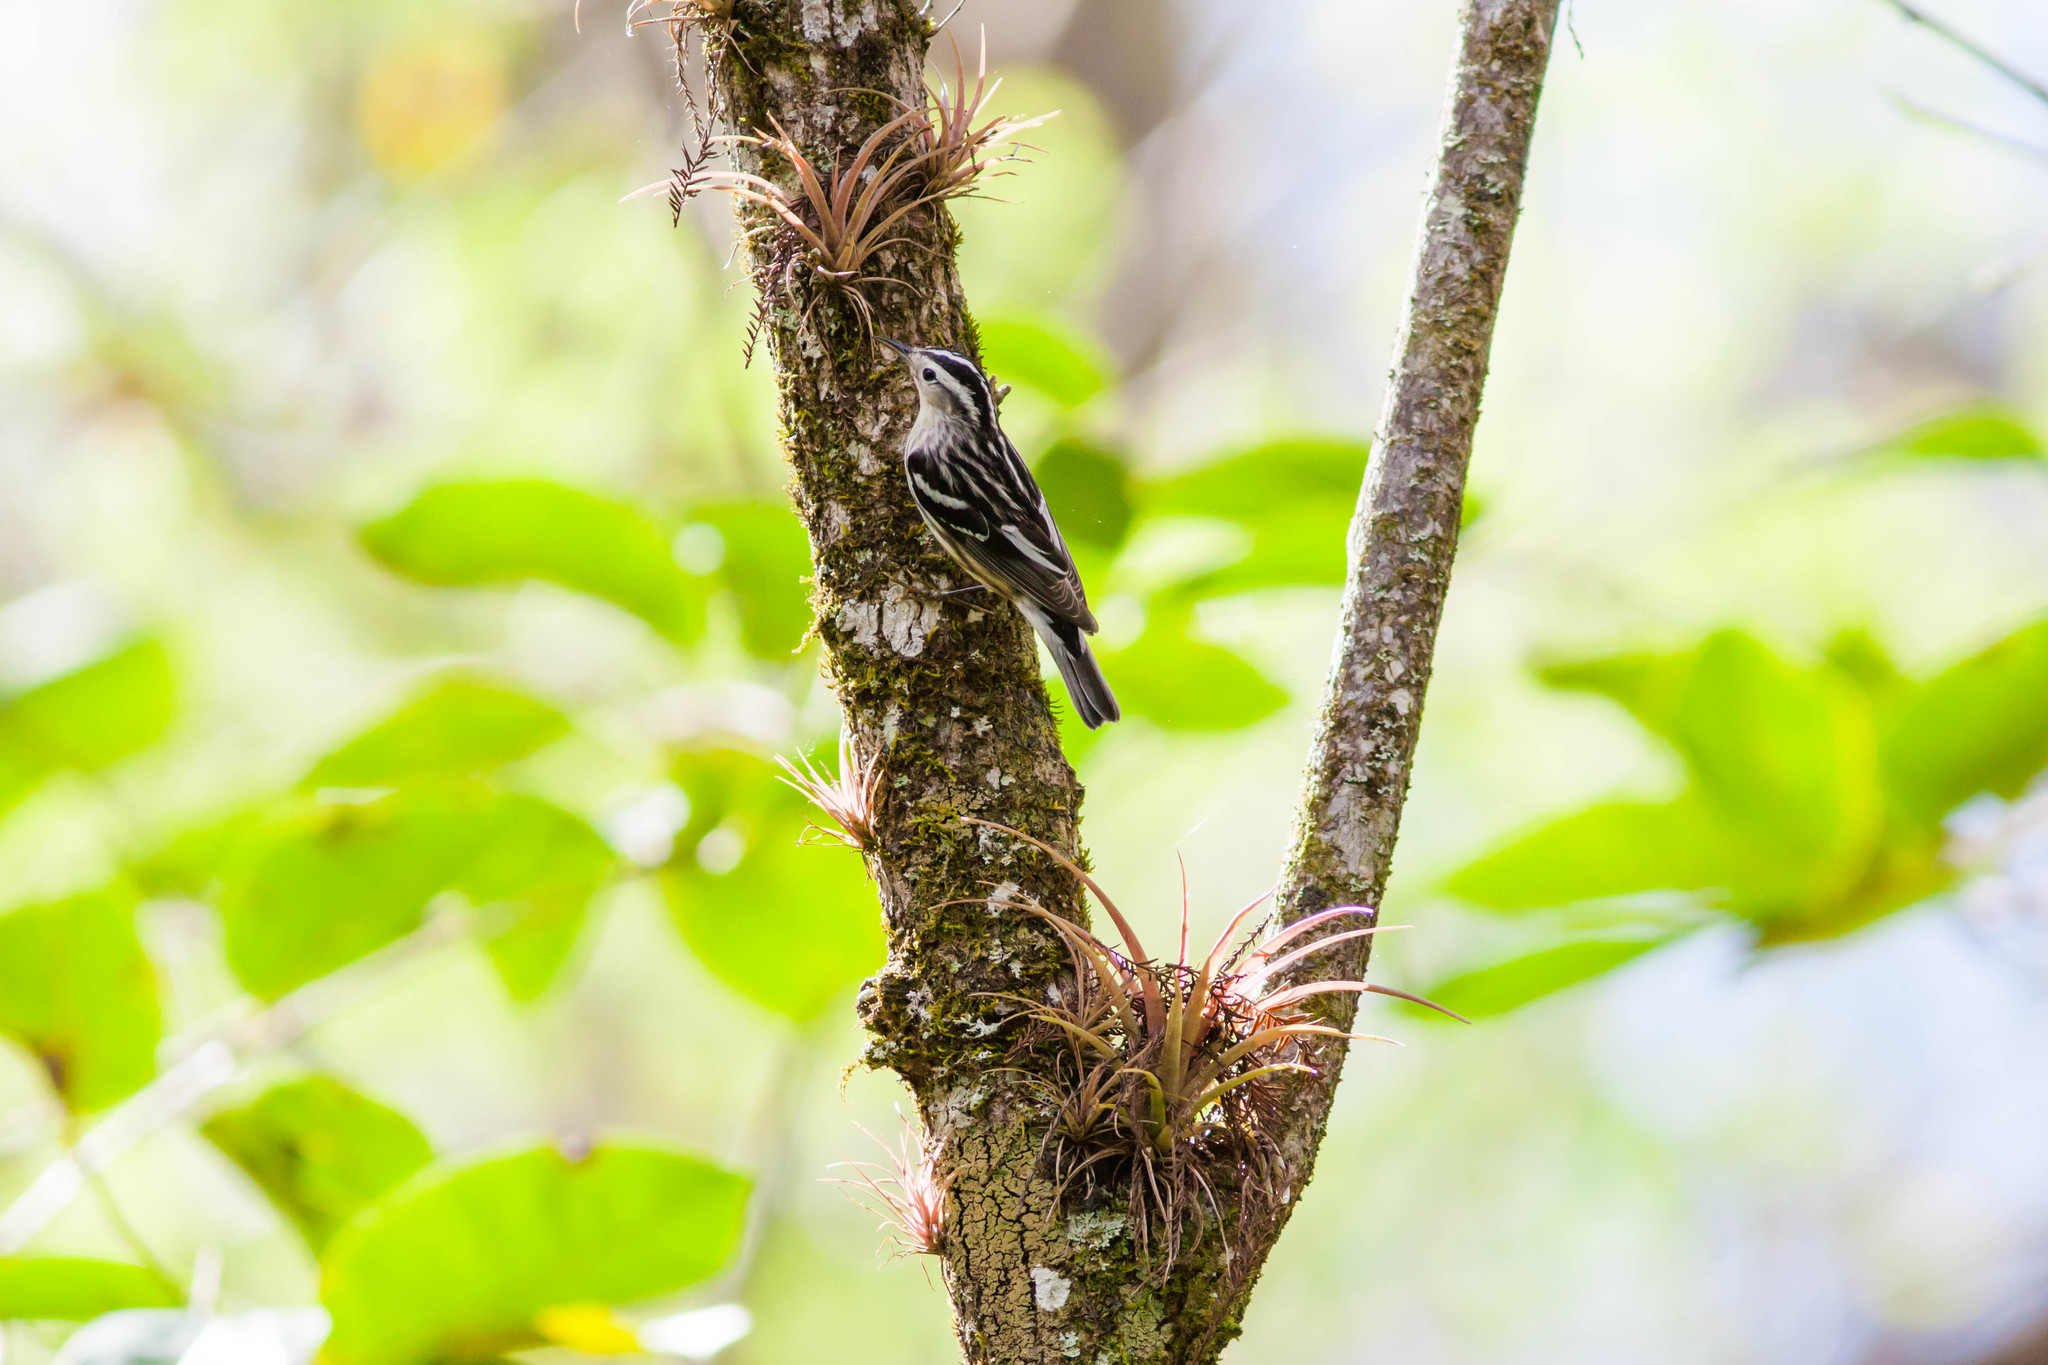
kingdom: Animalia
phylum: Chordata
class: Aves
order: Passeriformes
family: Parulidae
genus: Mniotilta
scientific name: Mniotilta varia
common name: Black-and-white warbler
